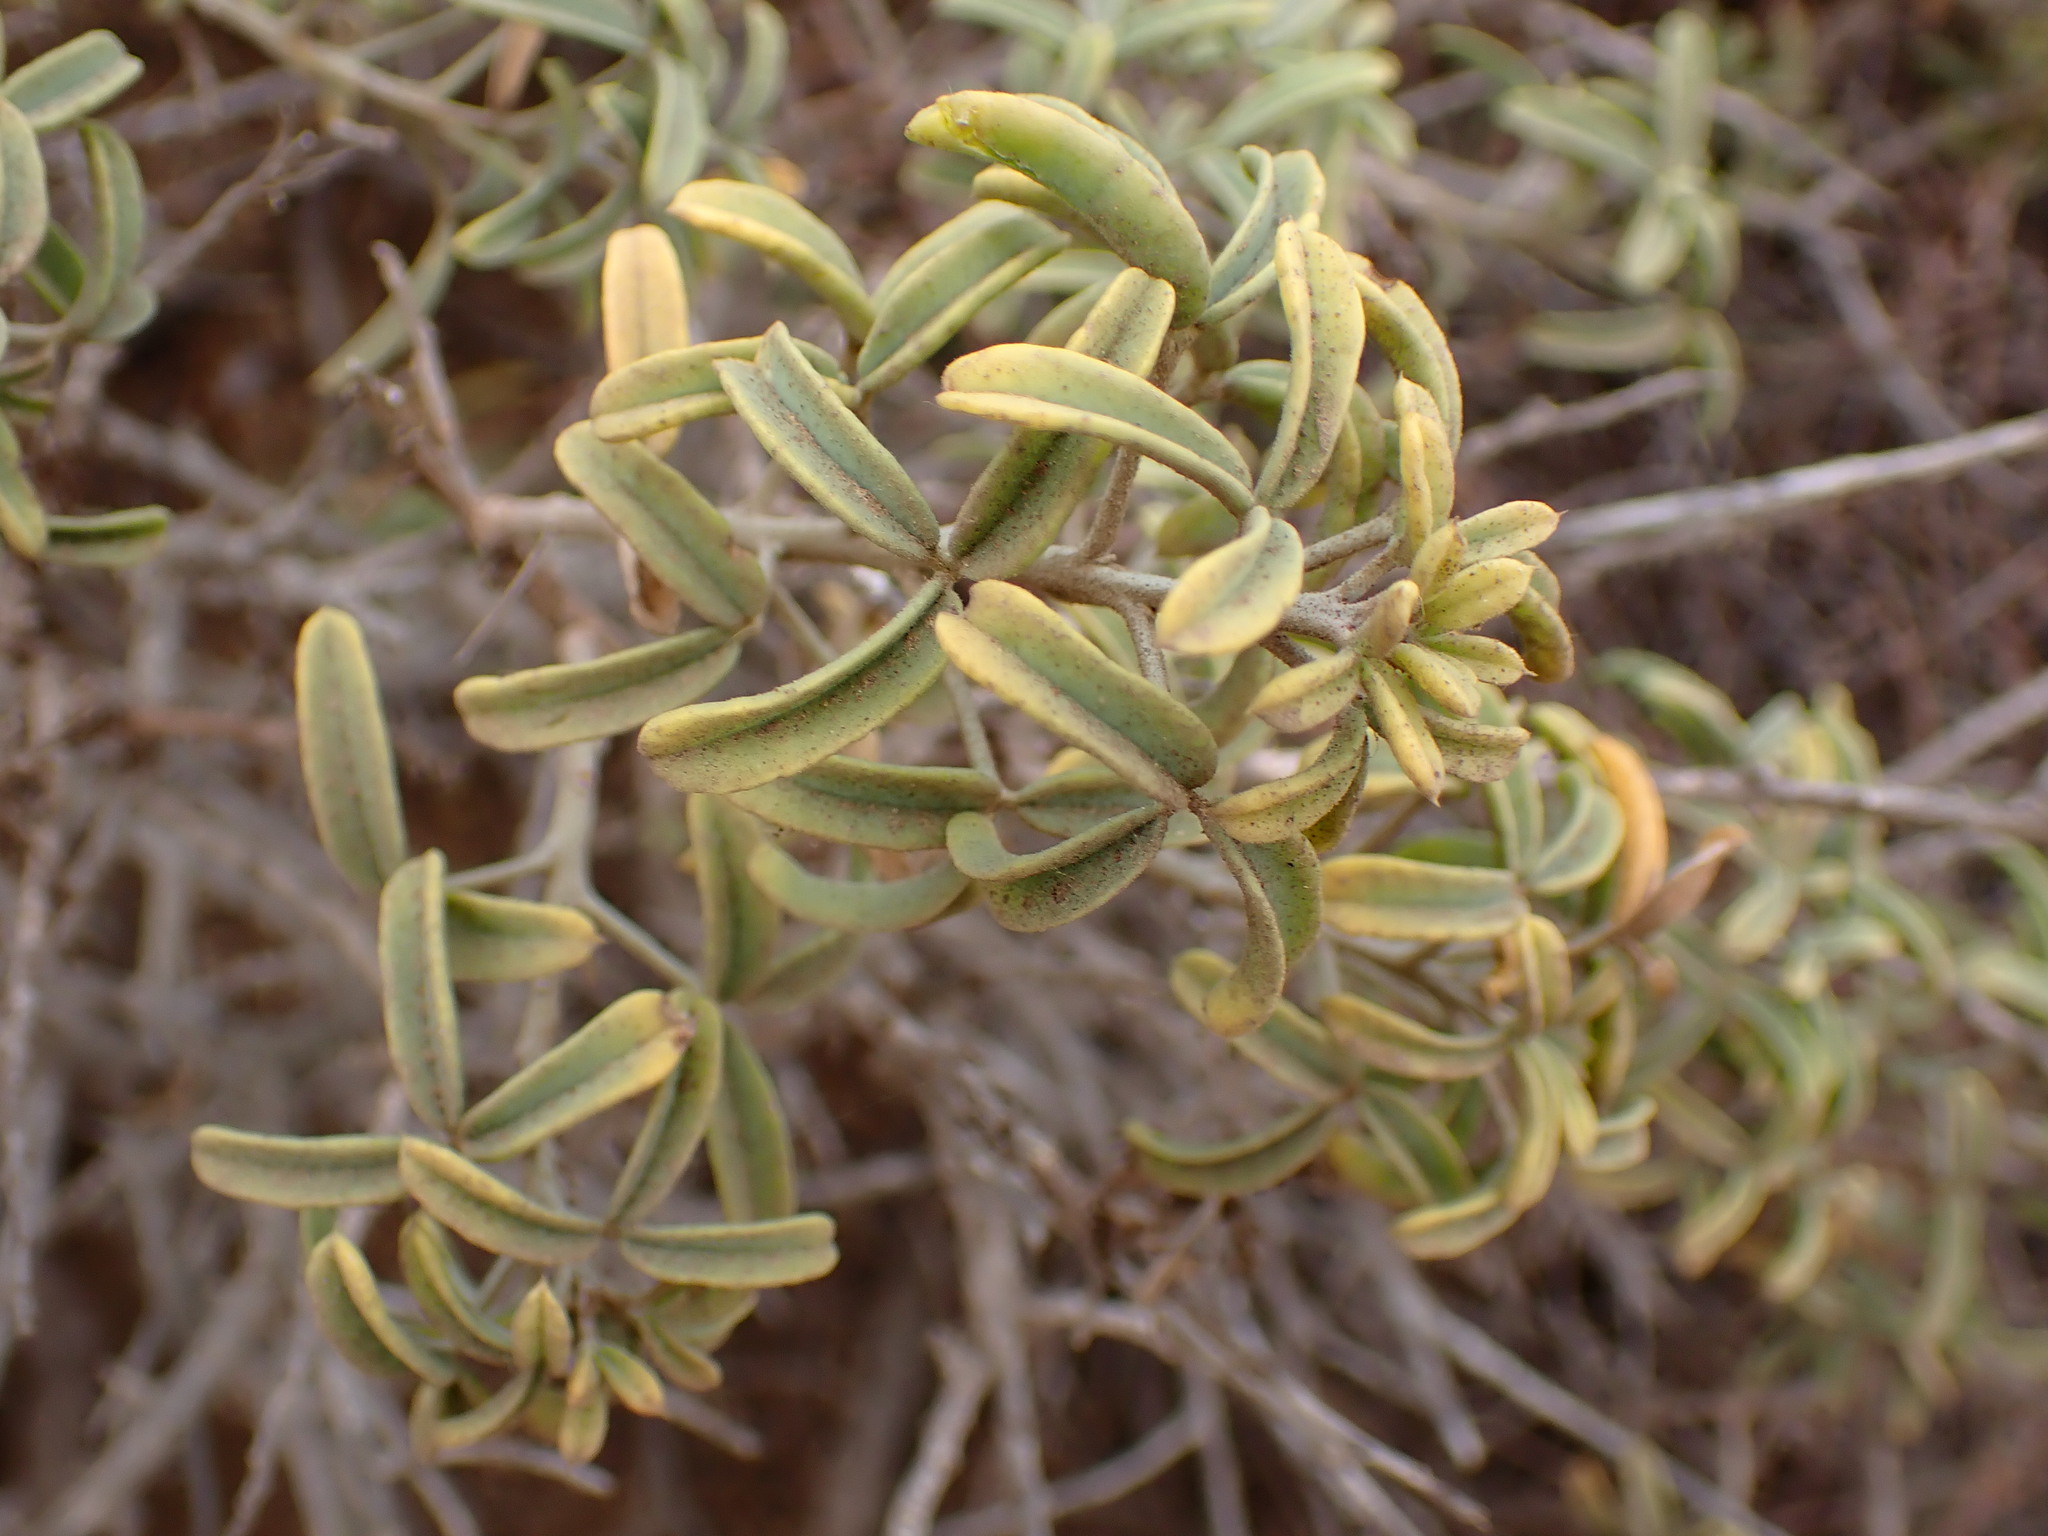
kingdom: Plantae
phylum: Tracheophyta
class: Magnoliopsida
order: Brassicales
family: Cleomaceae
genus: Cleomella
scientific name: Cleomella arborea
